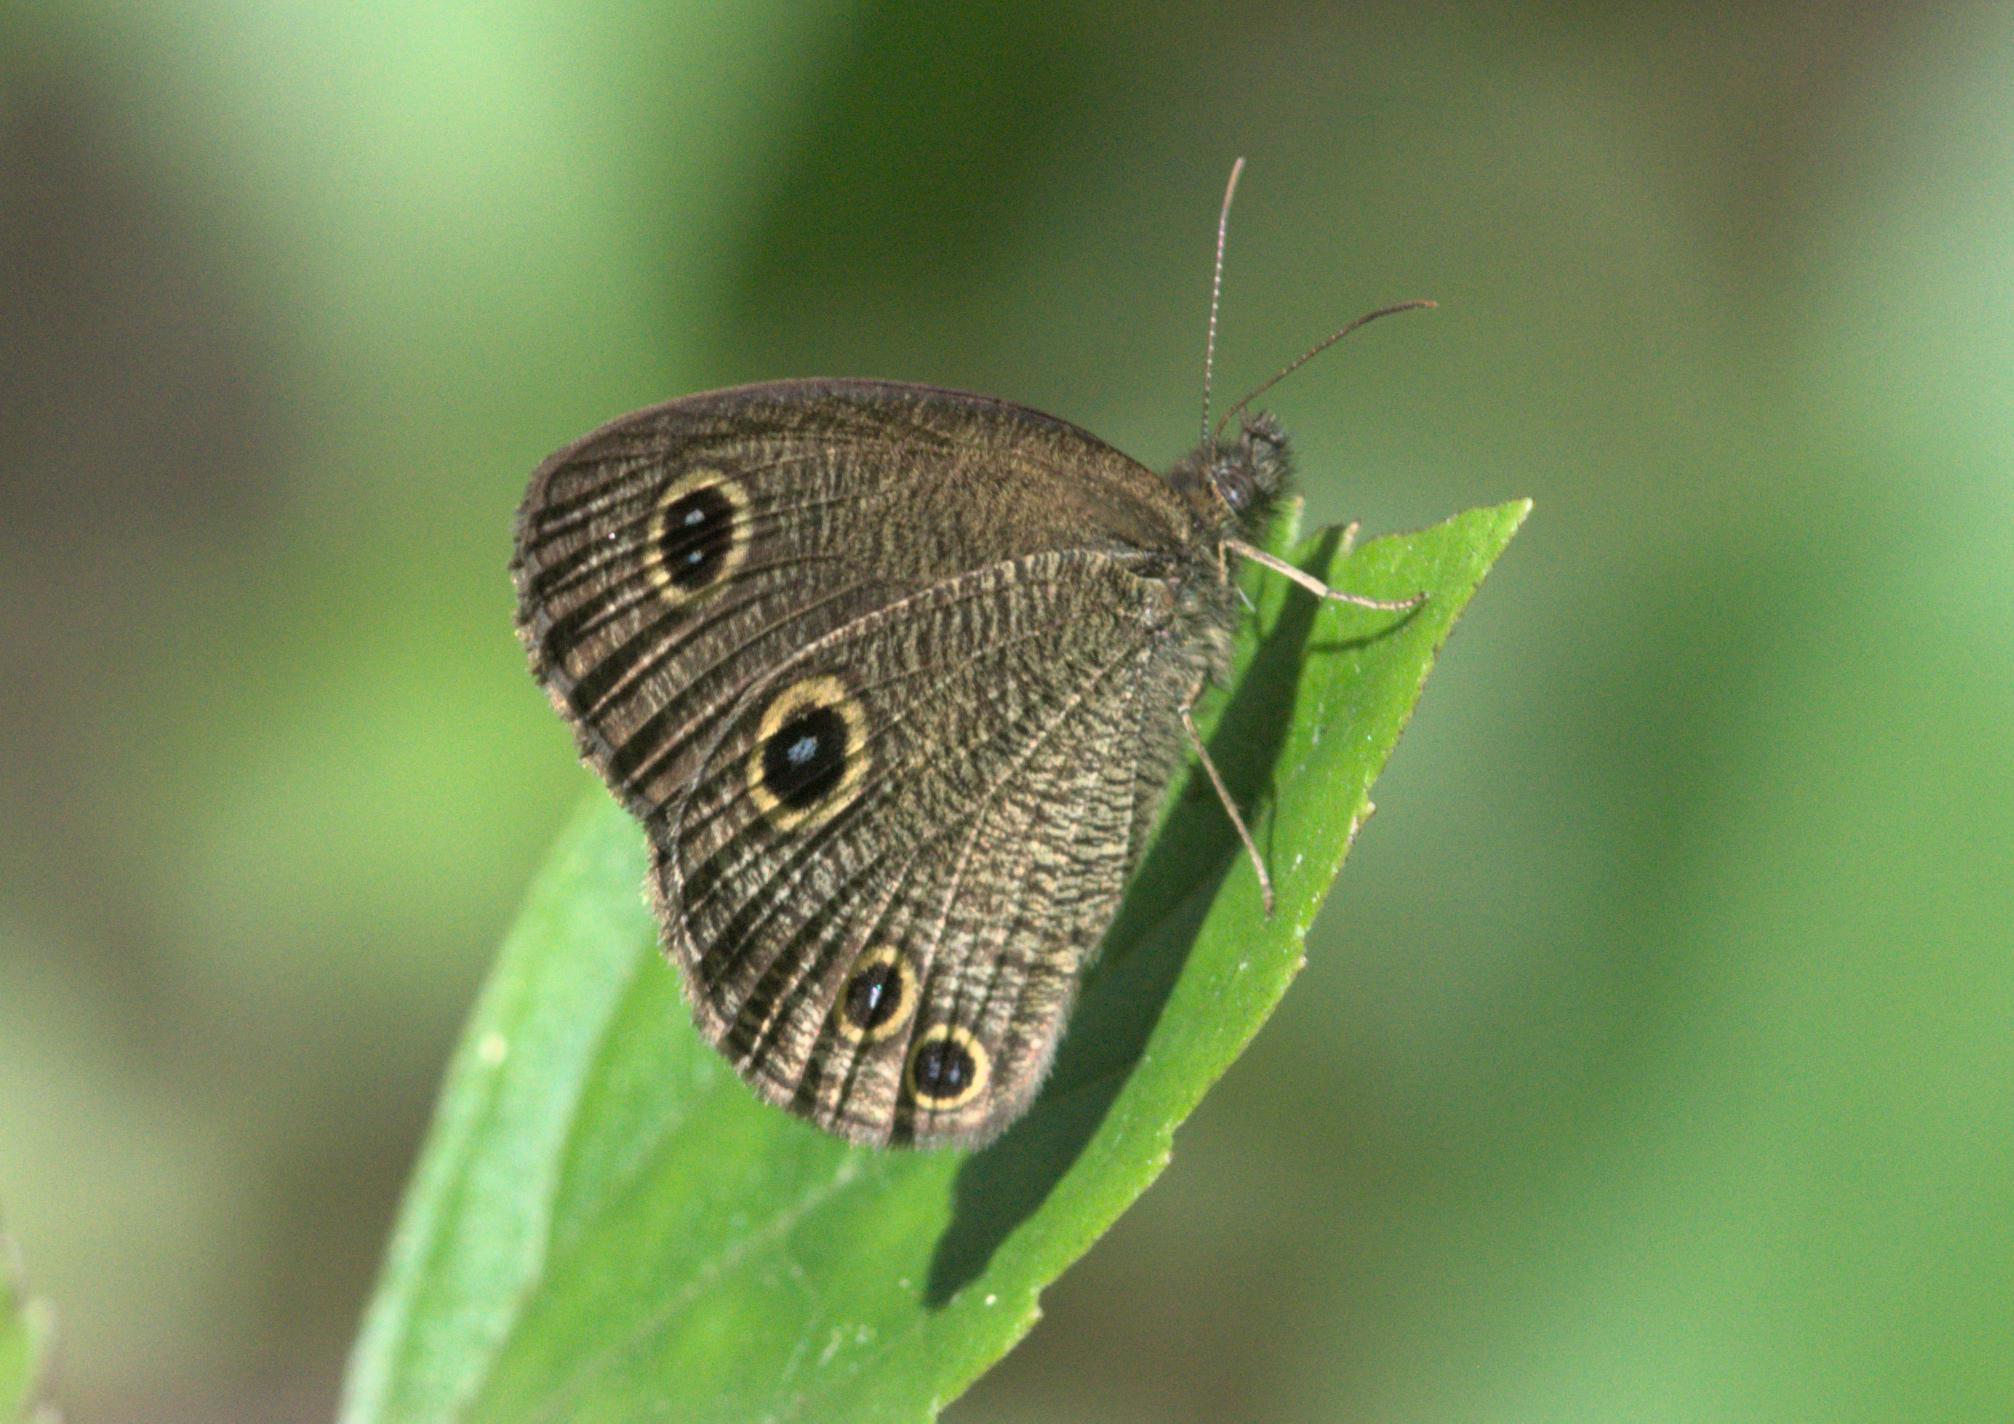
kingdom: Animalia
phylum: Arthropoda
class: Insecta
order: Lepidoptera
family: Nymphalidae
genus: Ypthima
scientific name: Ypthima nareda
